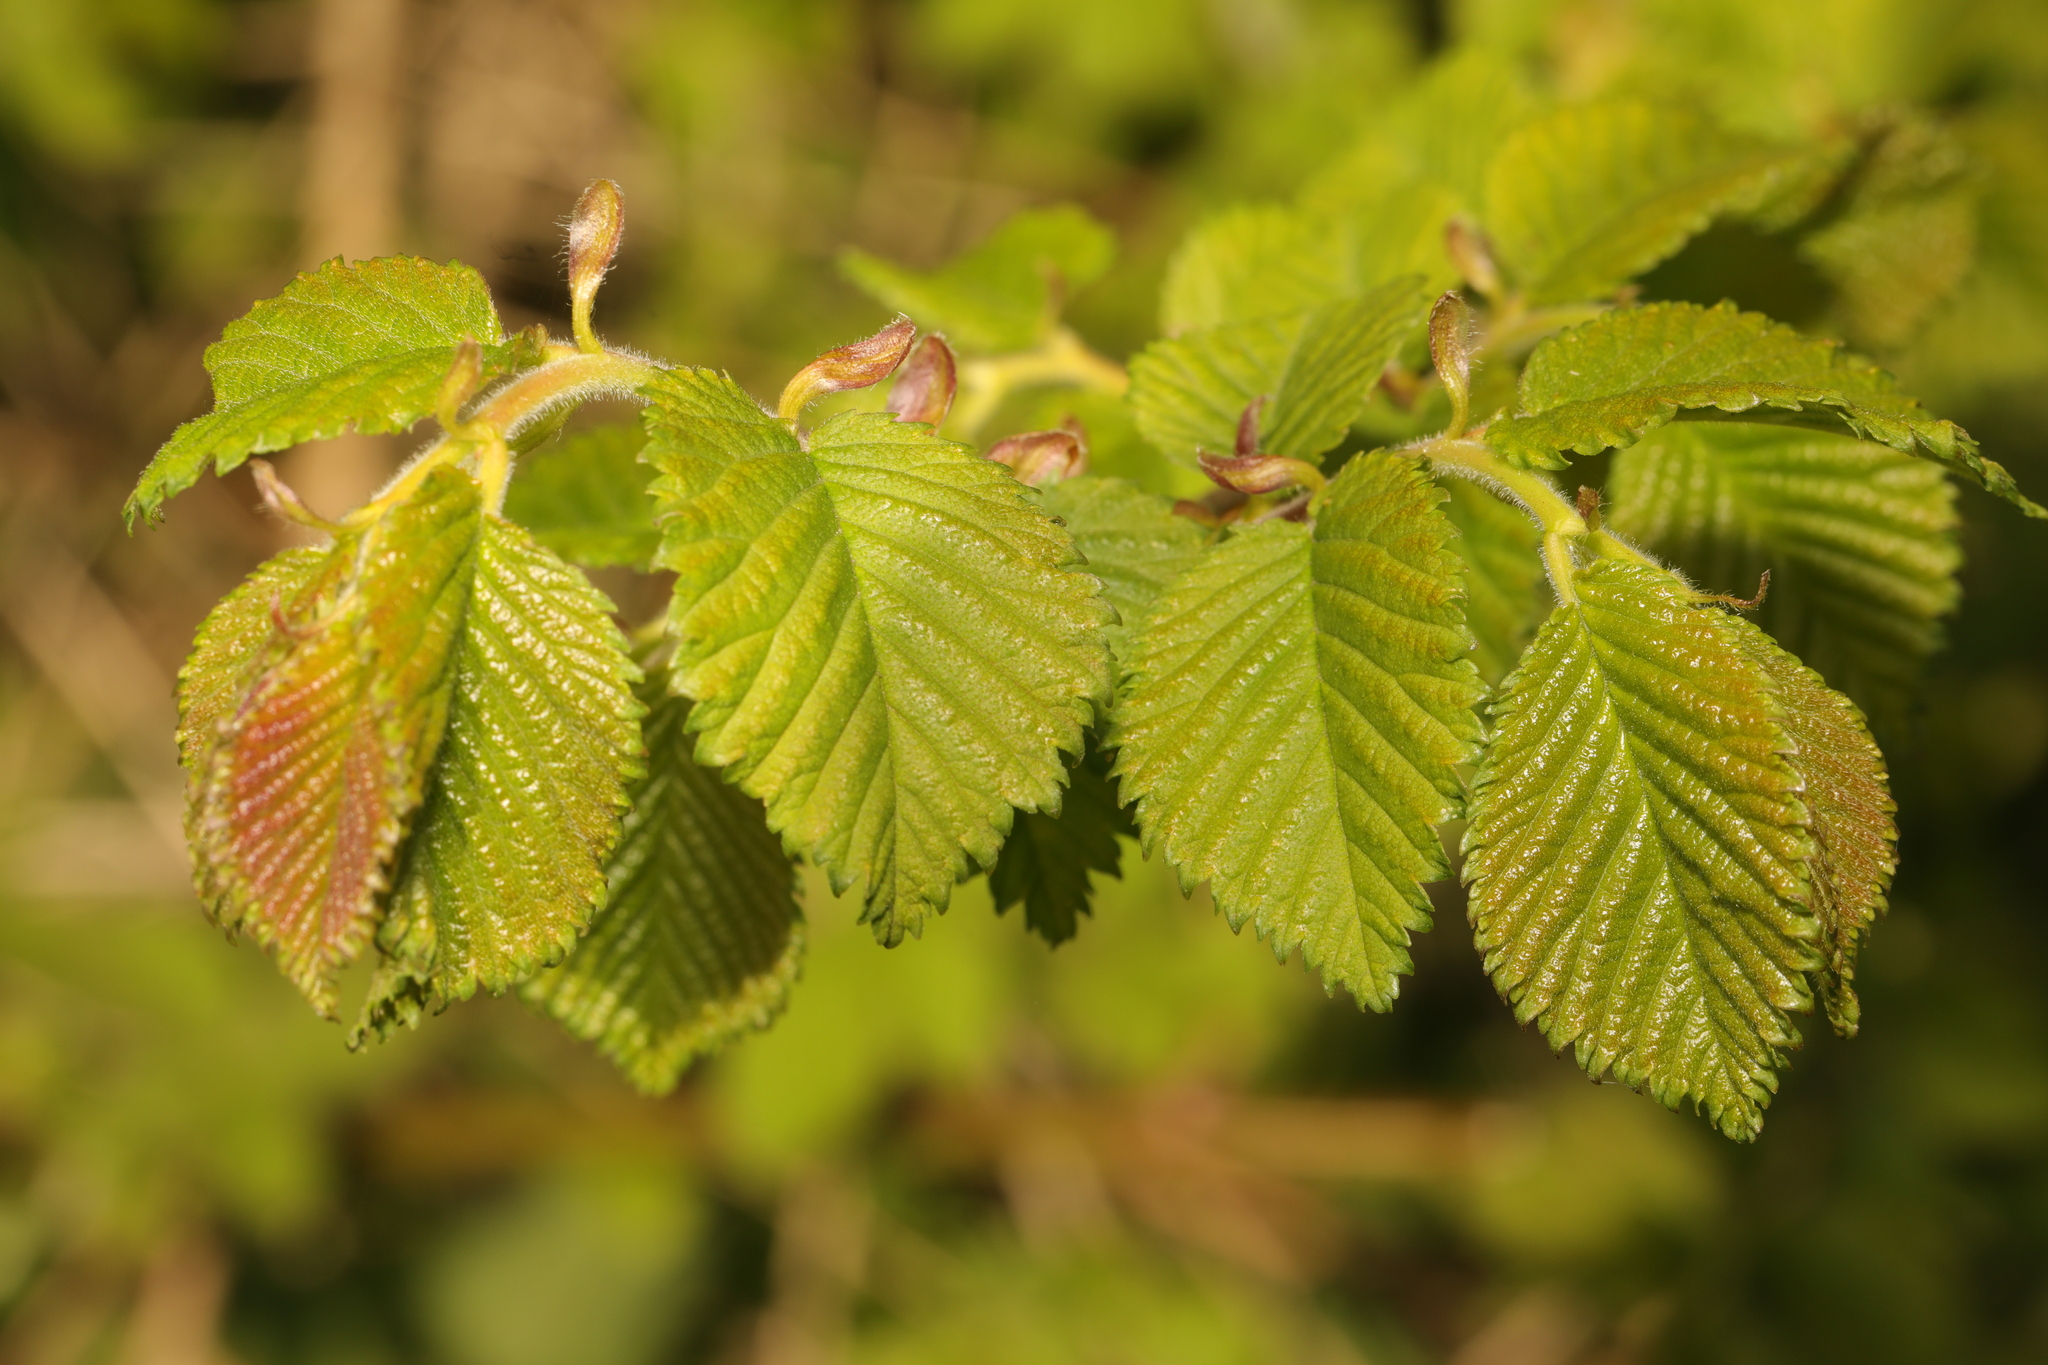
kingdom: Plantae
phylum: Tracheophyta
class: Magnoliopsida
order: Rosales
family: Ulmaceae
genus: Ulmus
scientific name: Ulmus glabra
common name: Wych elm
